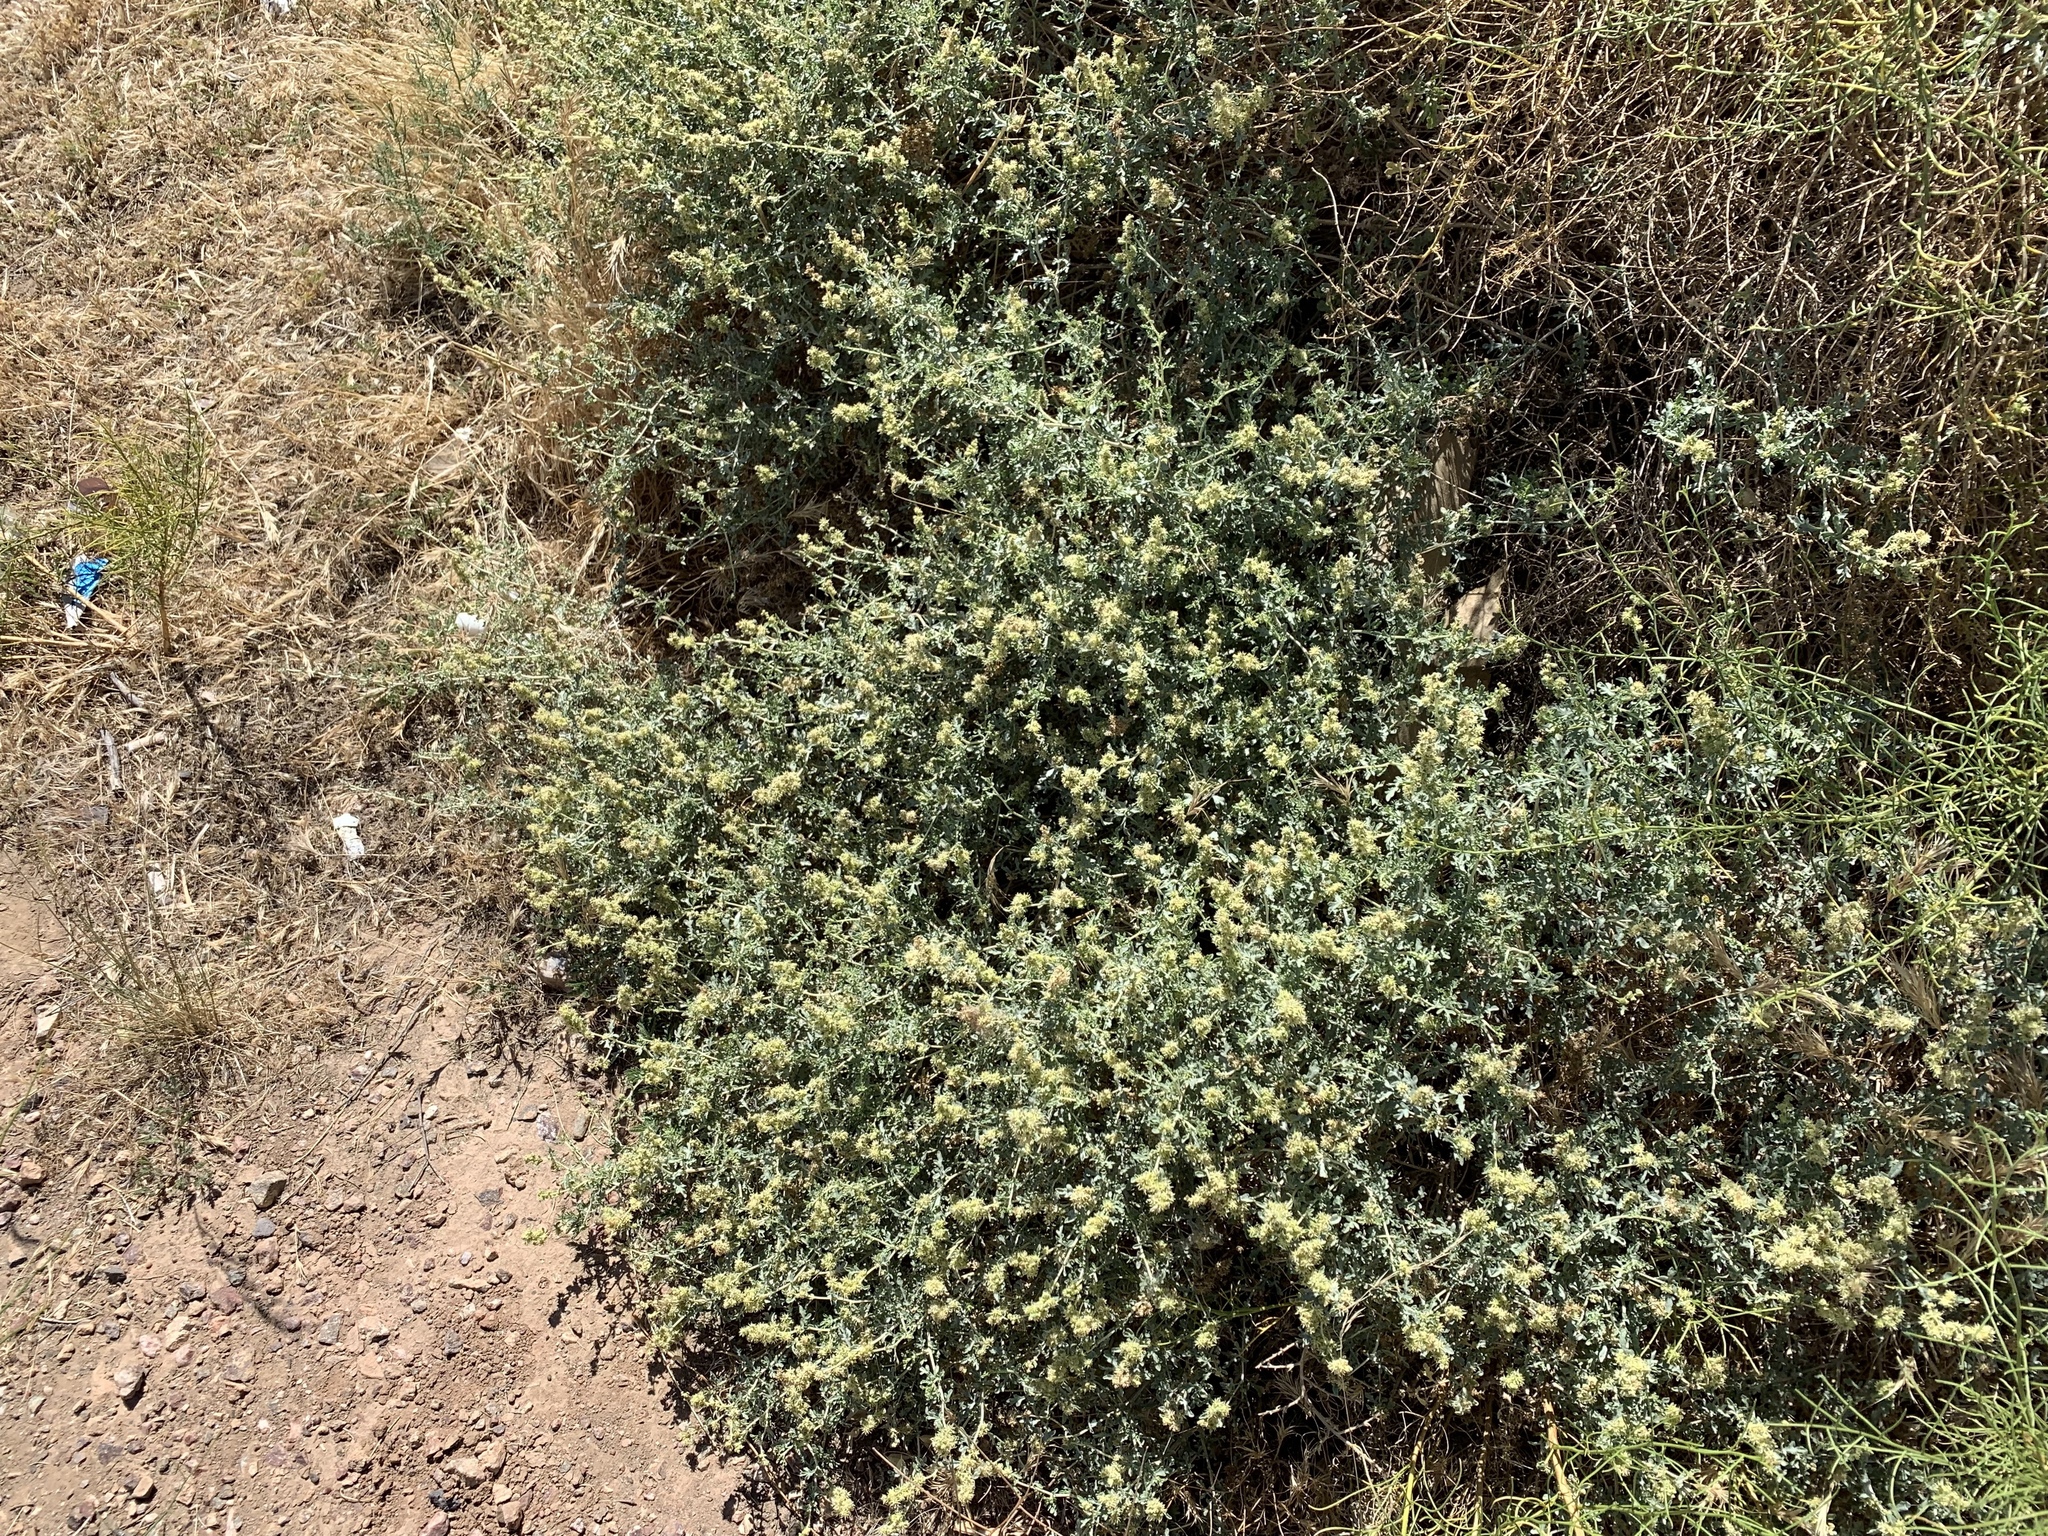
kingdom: Plantae
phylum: Tracheophyta
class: Magnoliopsida
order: Asterales
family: Asteraceae
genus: Ambrosia
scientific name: Ambrosia dumosa
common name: Bur-sage
